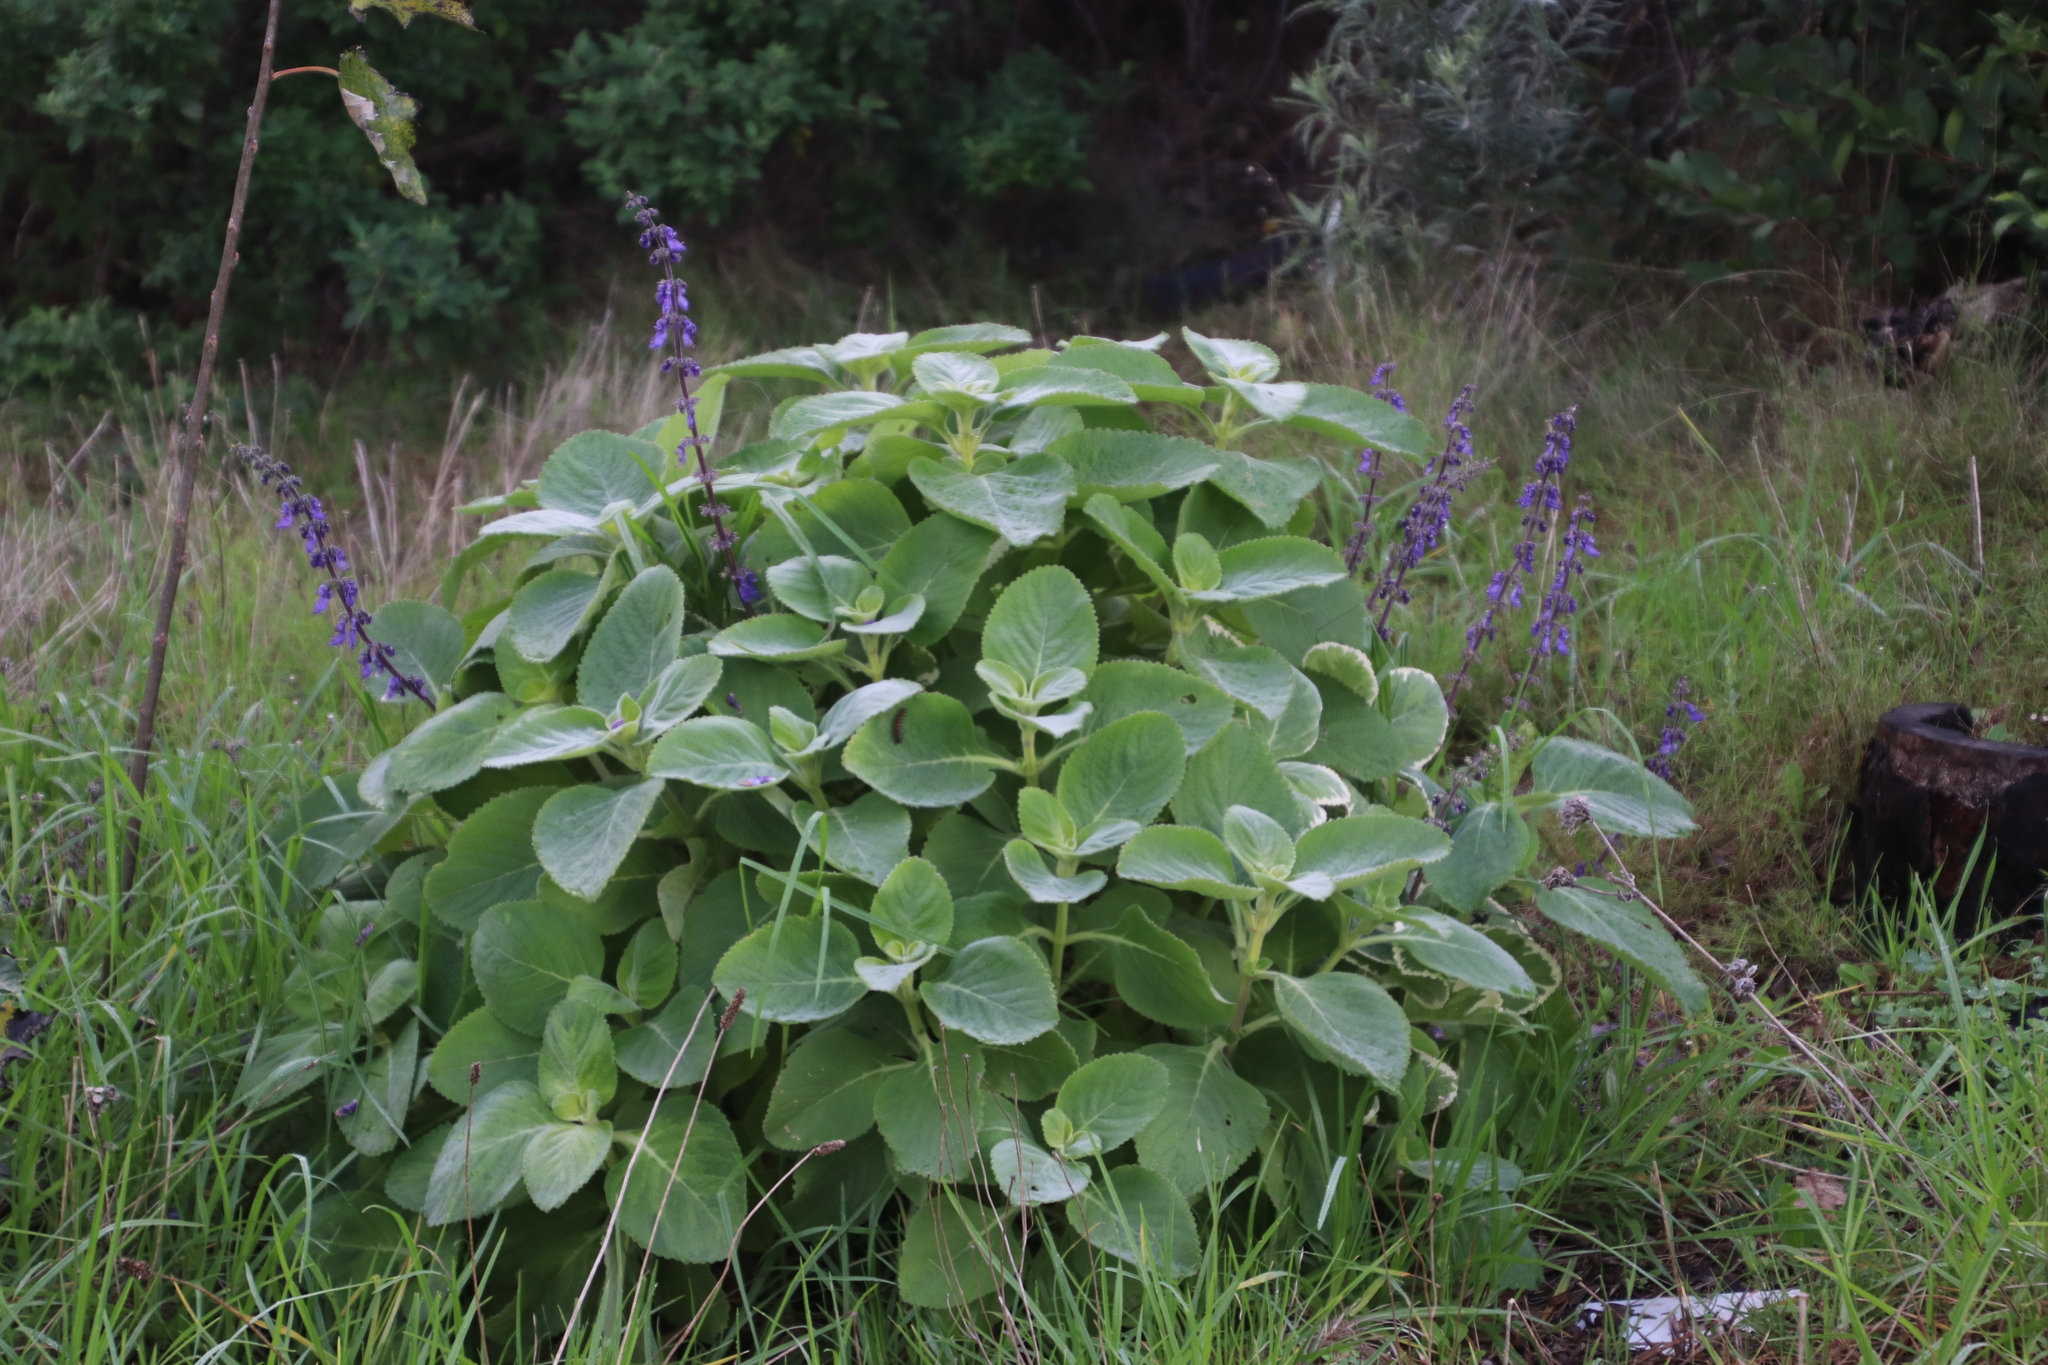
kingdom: Plantae
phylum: Tracheophyta
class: Magnoliopsida
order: Lamiales
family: Lamiaceae
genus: Coleus
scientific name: Coleus barbatus
